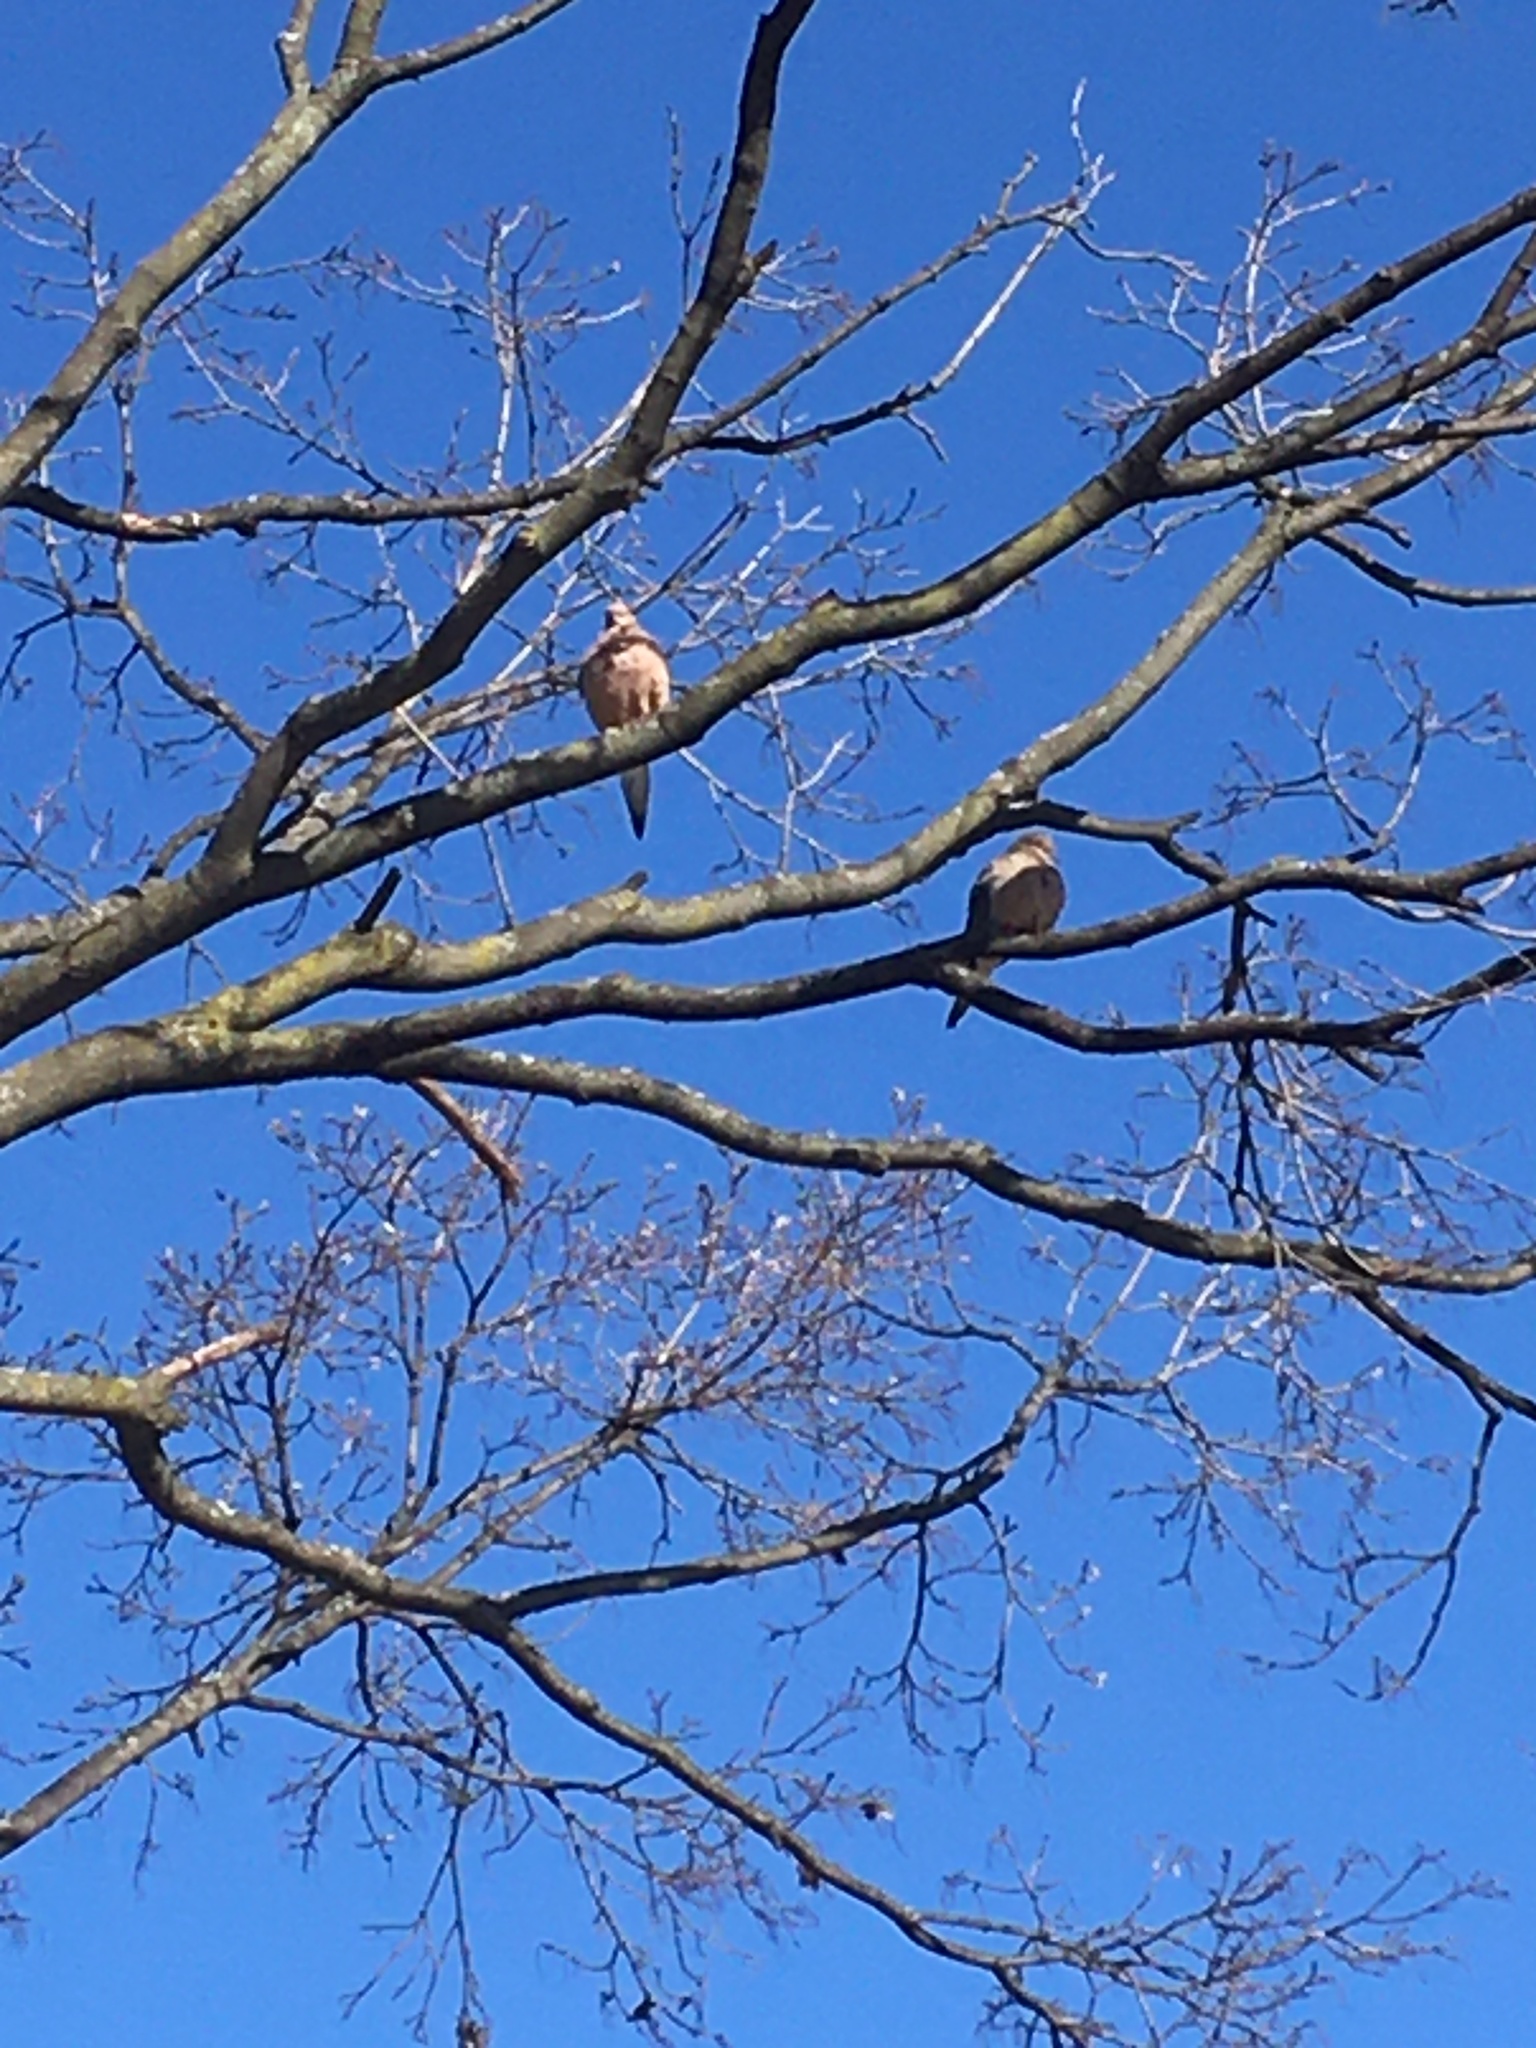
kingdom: Animalia
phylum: Chordata
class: Aves
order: Columbiformes
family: Columbidae
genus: Zenaida
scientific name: Zenaida macroura
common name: Mourning dove
